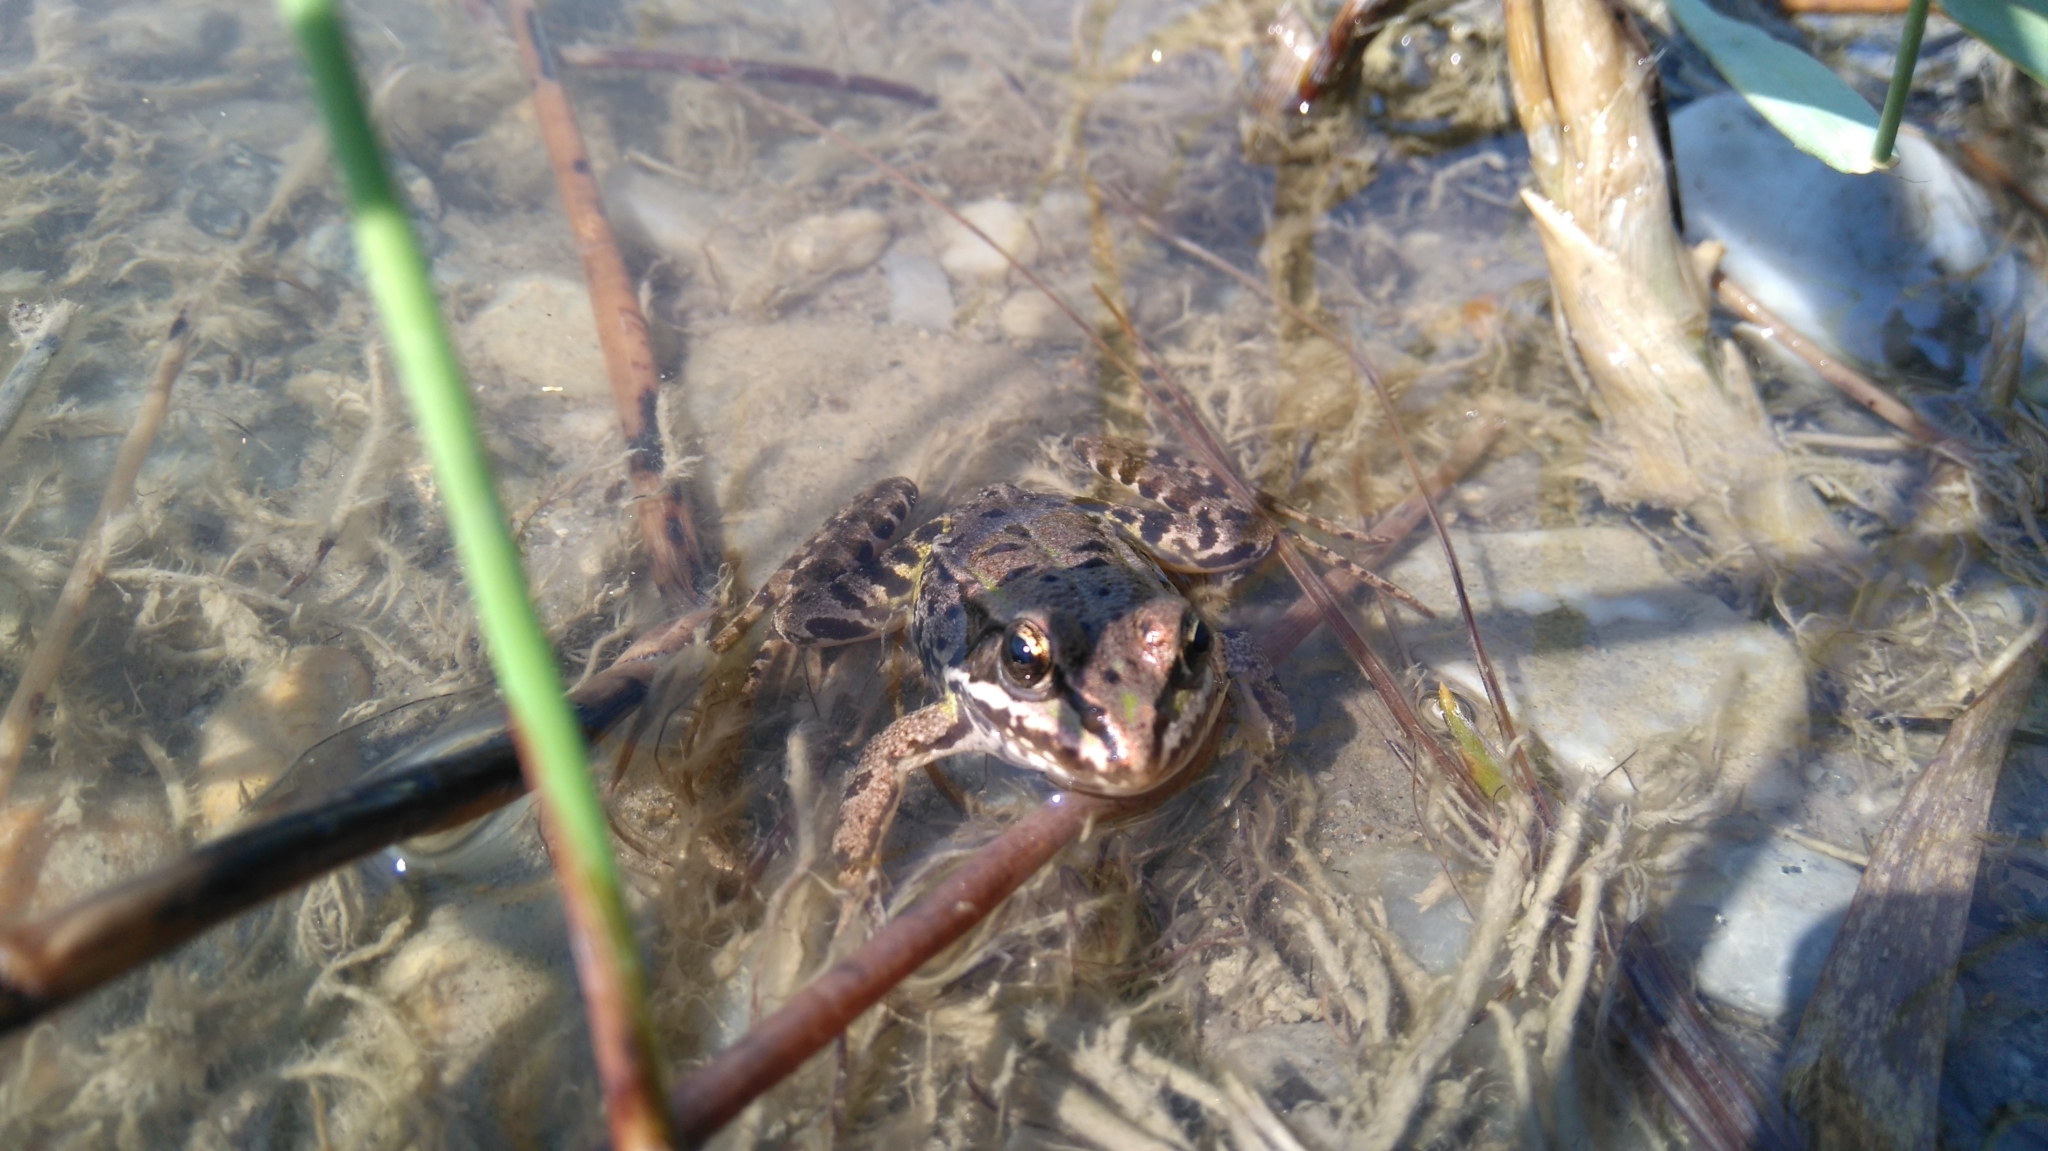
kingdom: Animalia
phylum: Chordata
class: Amphibia
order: Anura
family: Ranidae
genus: Pelophylax
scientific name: Pelophylax
